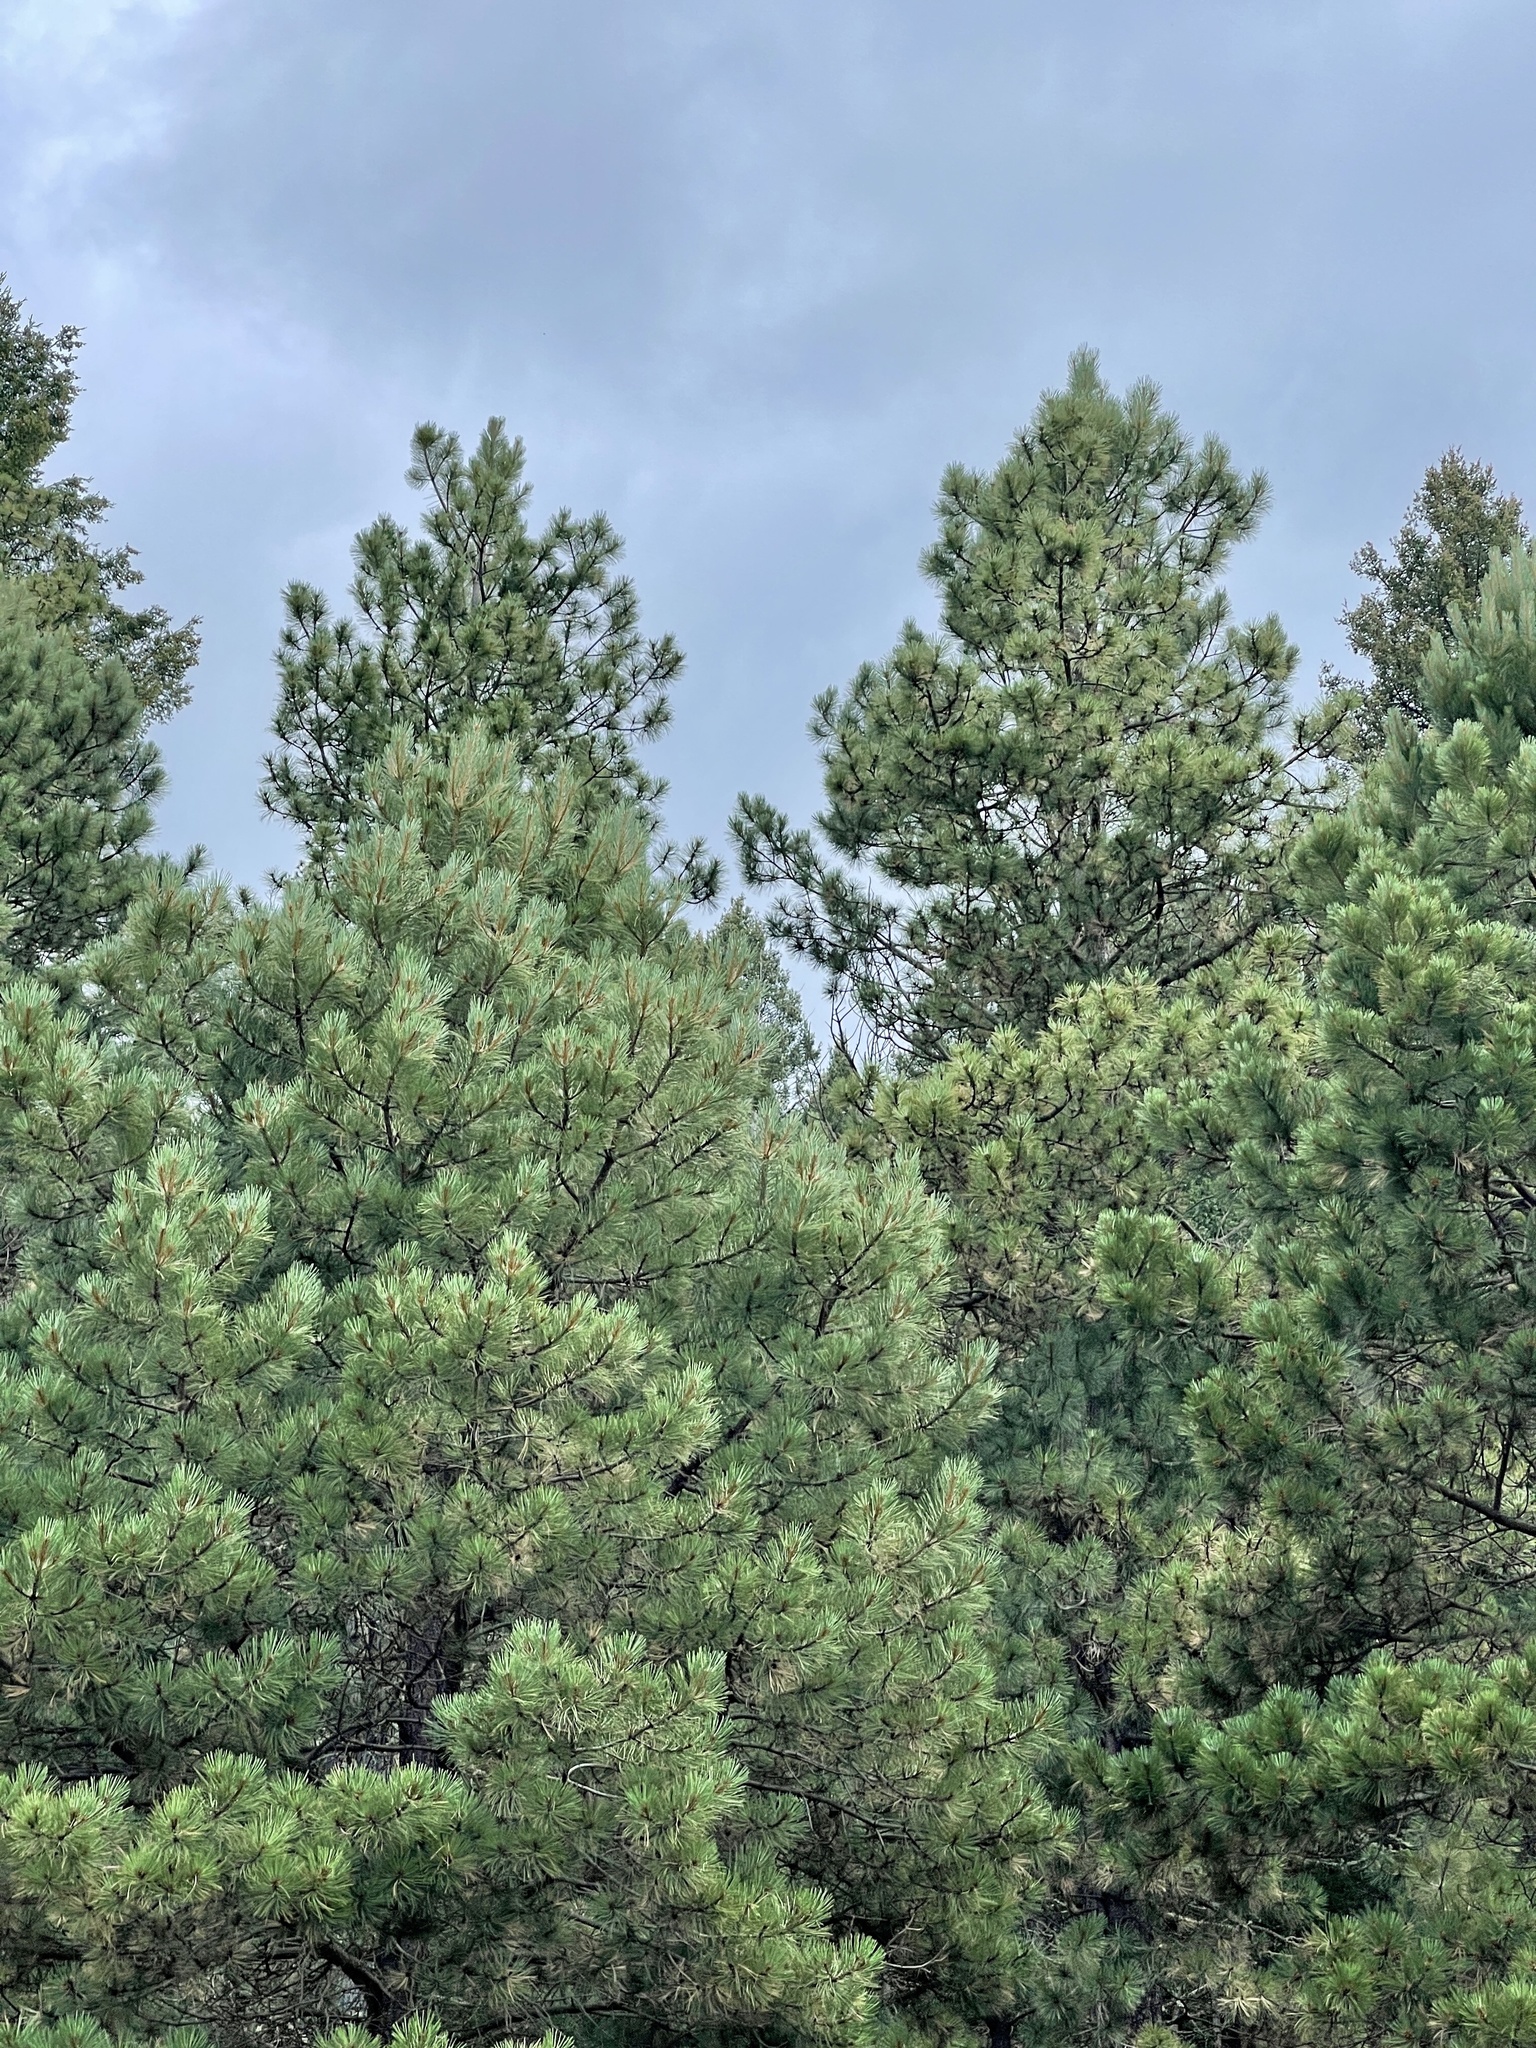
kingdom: Plantae
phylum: Tracheophyta
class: Pinopsida
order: Pinales
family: Pinaceae
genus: Pinus
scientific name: Pinus ponderosa
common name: Western yellow-pine
